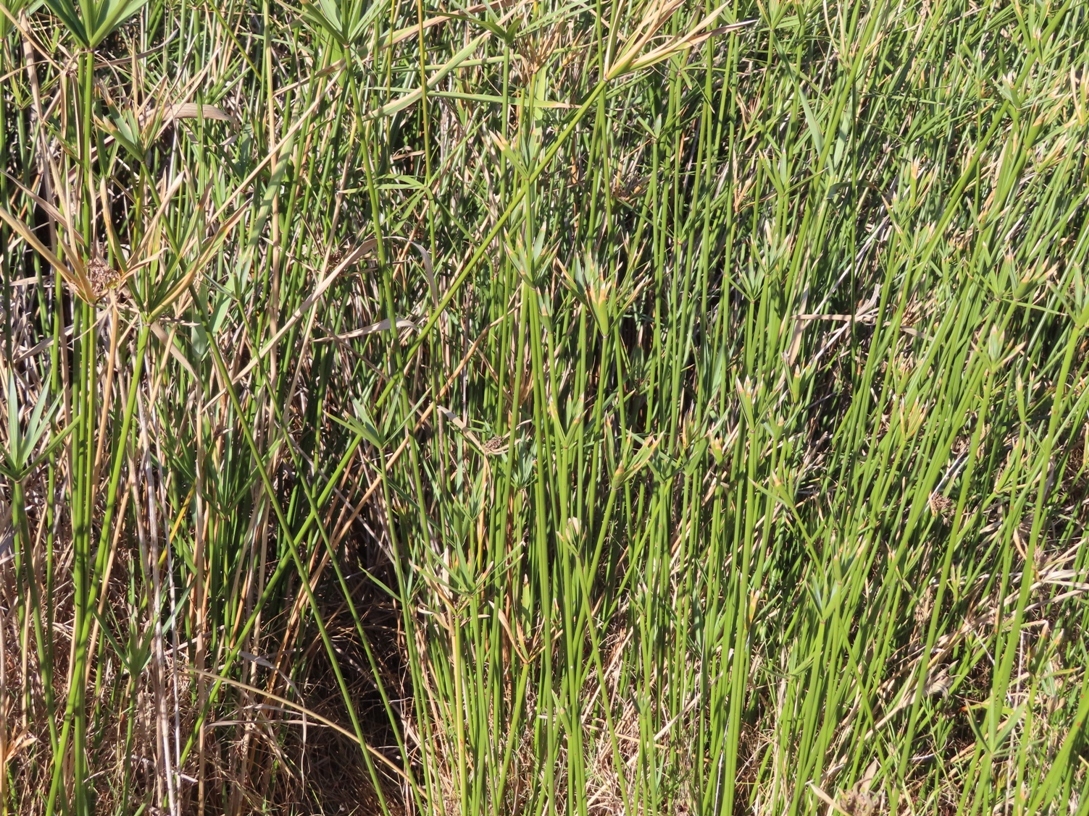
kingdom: Plantae
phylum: Tracheophyta
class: Liliopsida
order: Poales
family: Cyperaceae
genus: Cyperus
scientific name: Cyperus textilis
